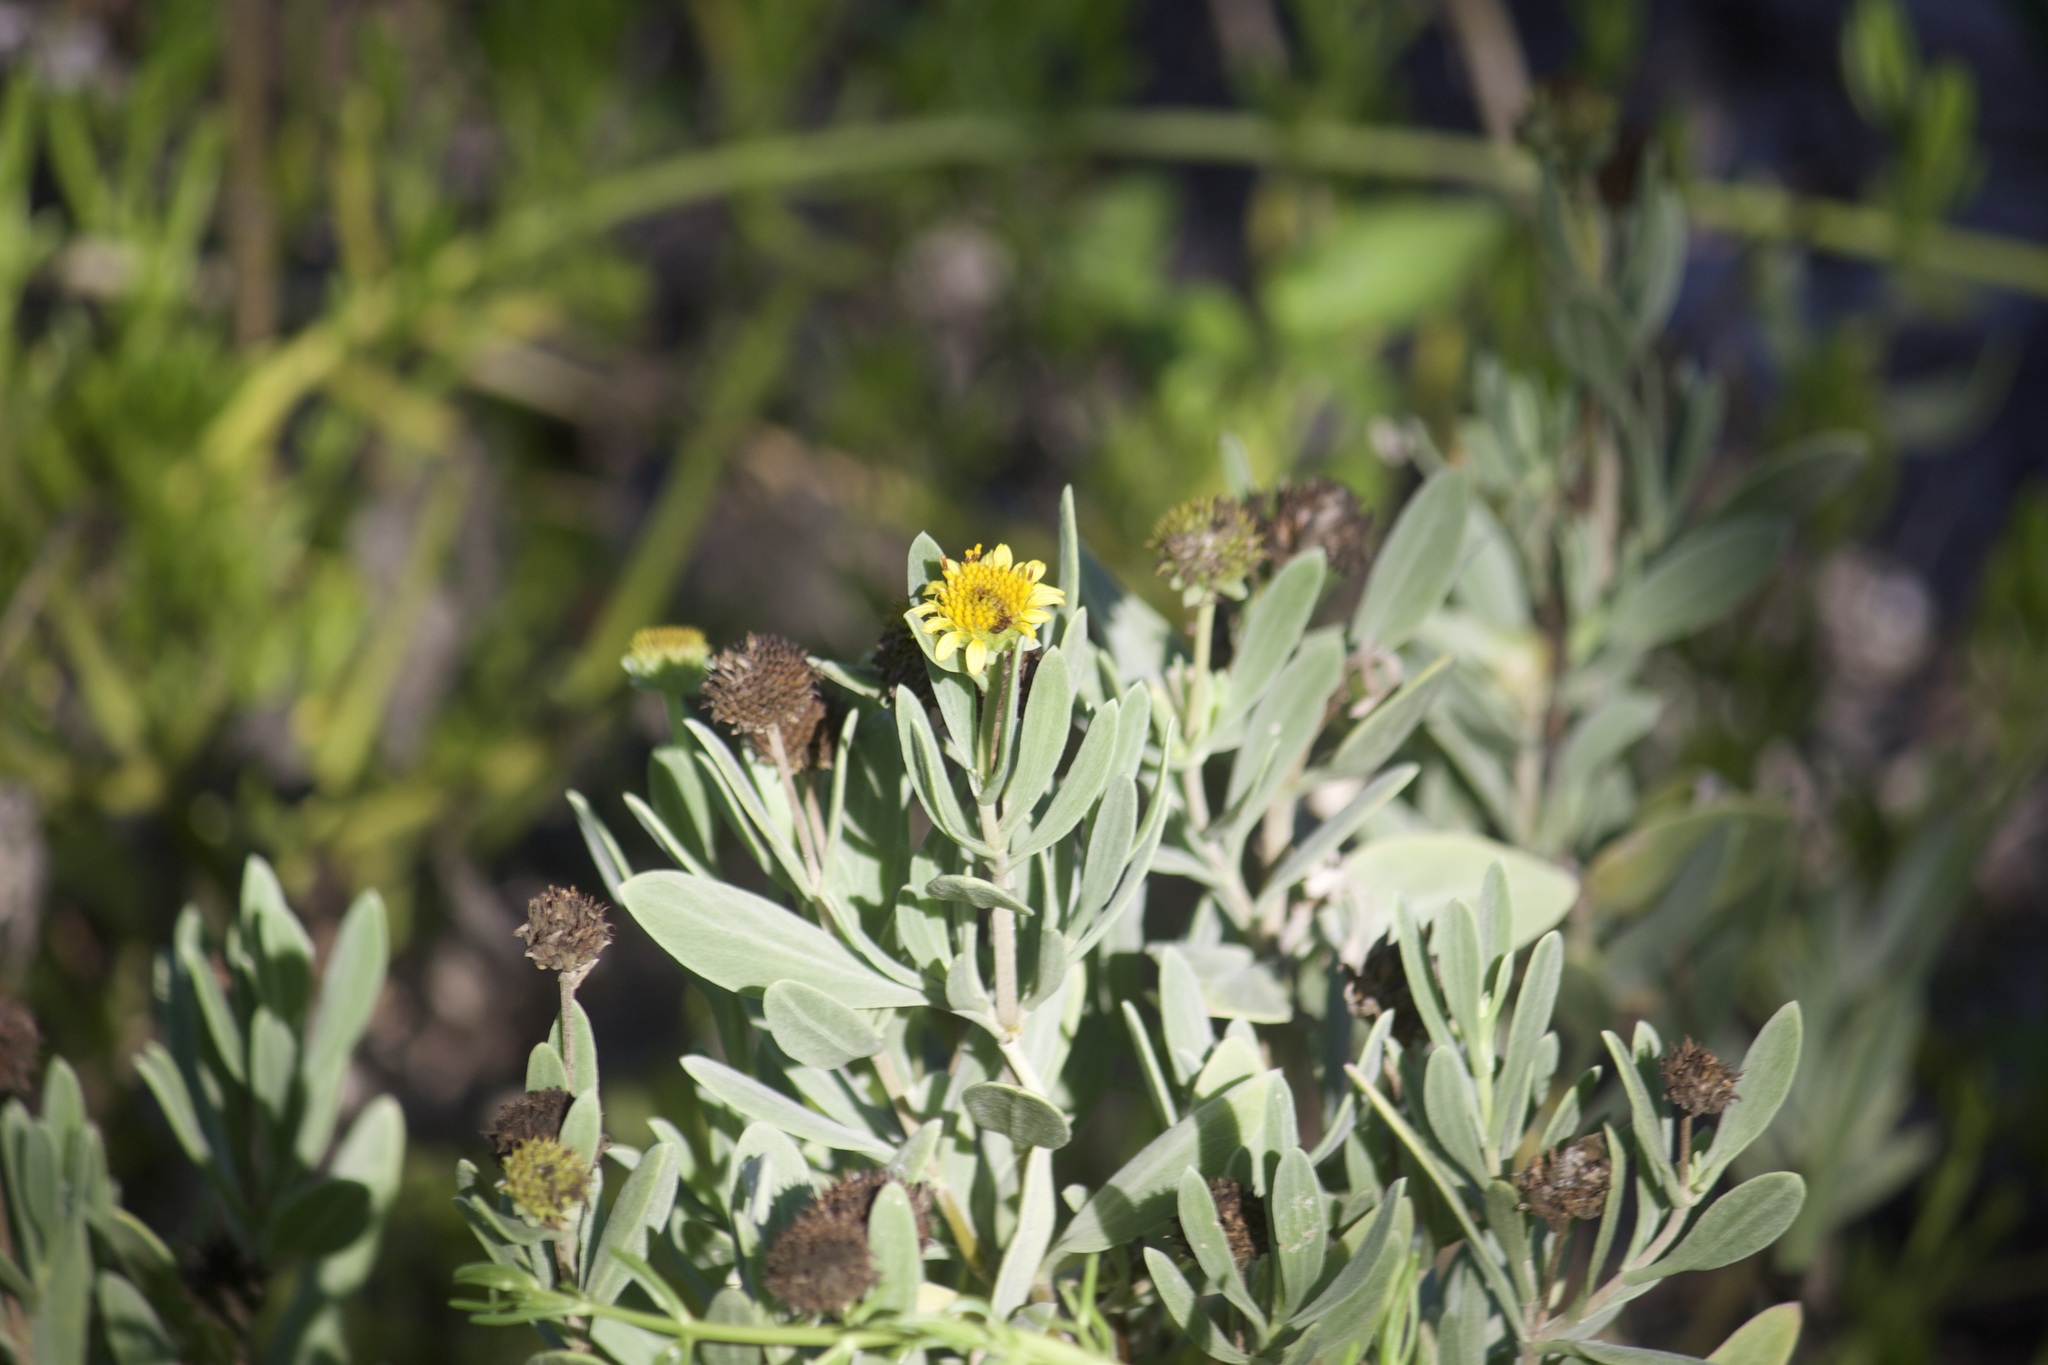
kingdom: Plantae
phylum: Tracheophyta
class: Magnoliopsida
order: Asterales
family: Asteraceae
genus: Borrichia
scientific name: Borrichia frutescens
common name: Sea oxeye
